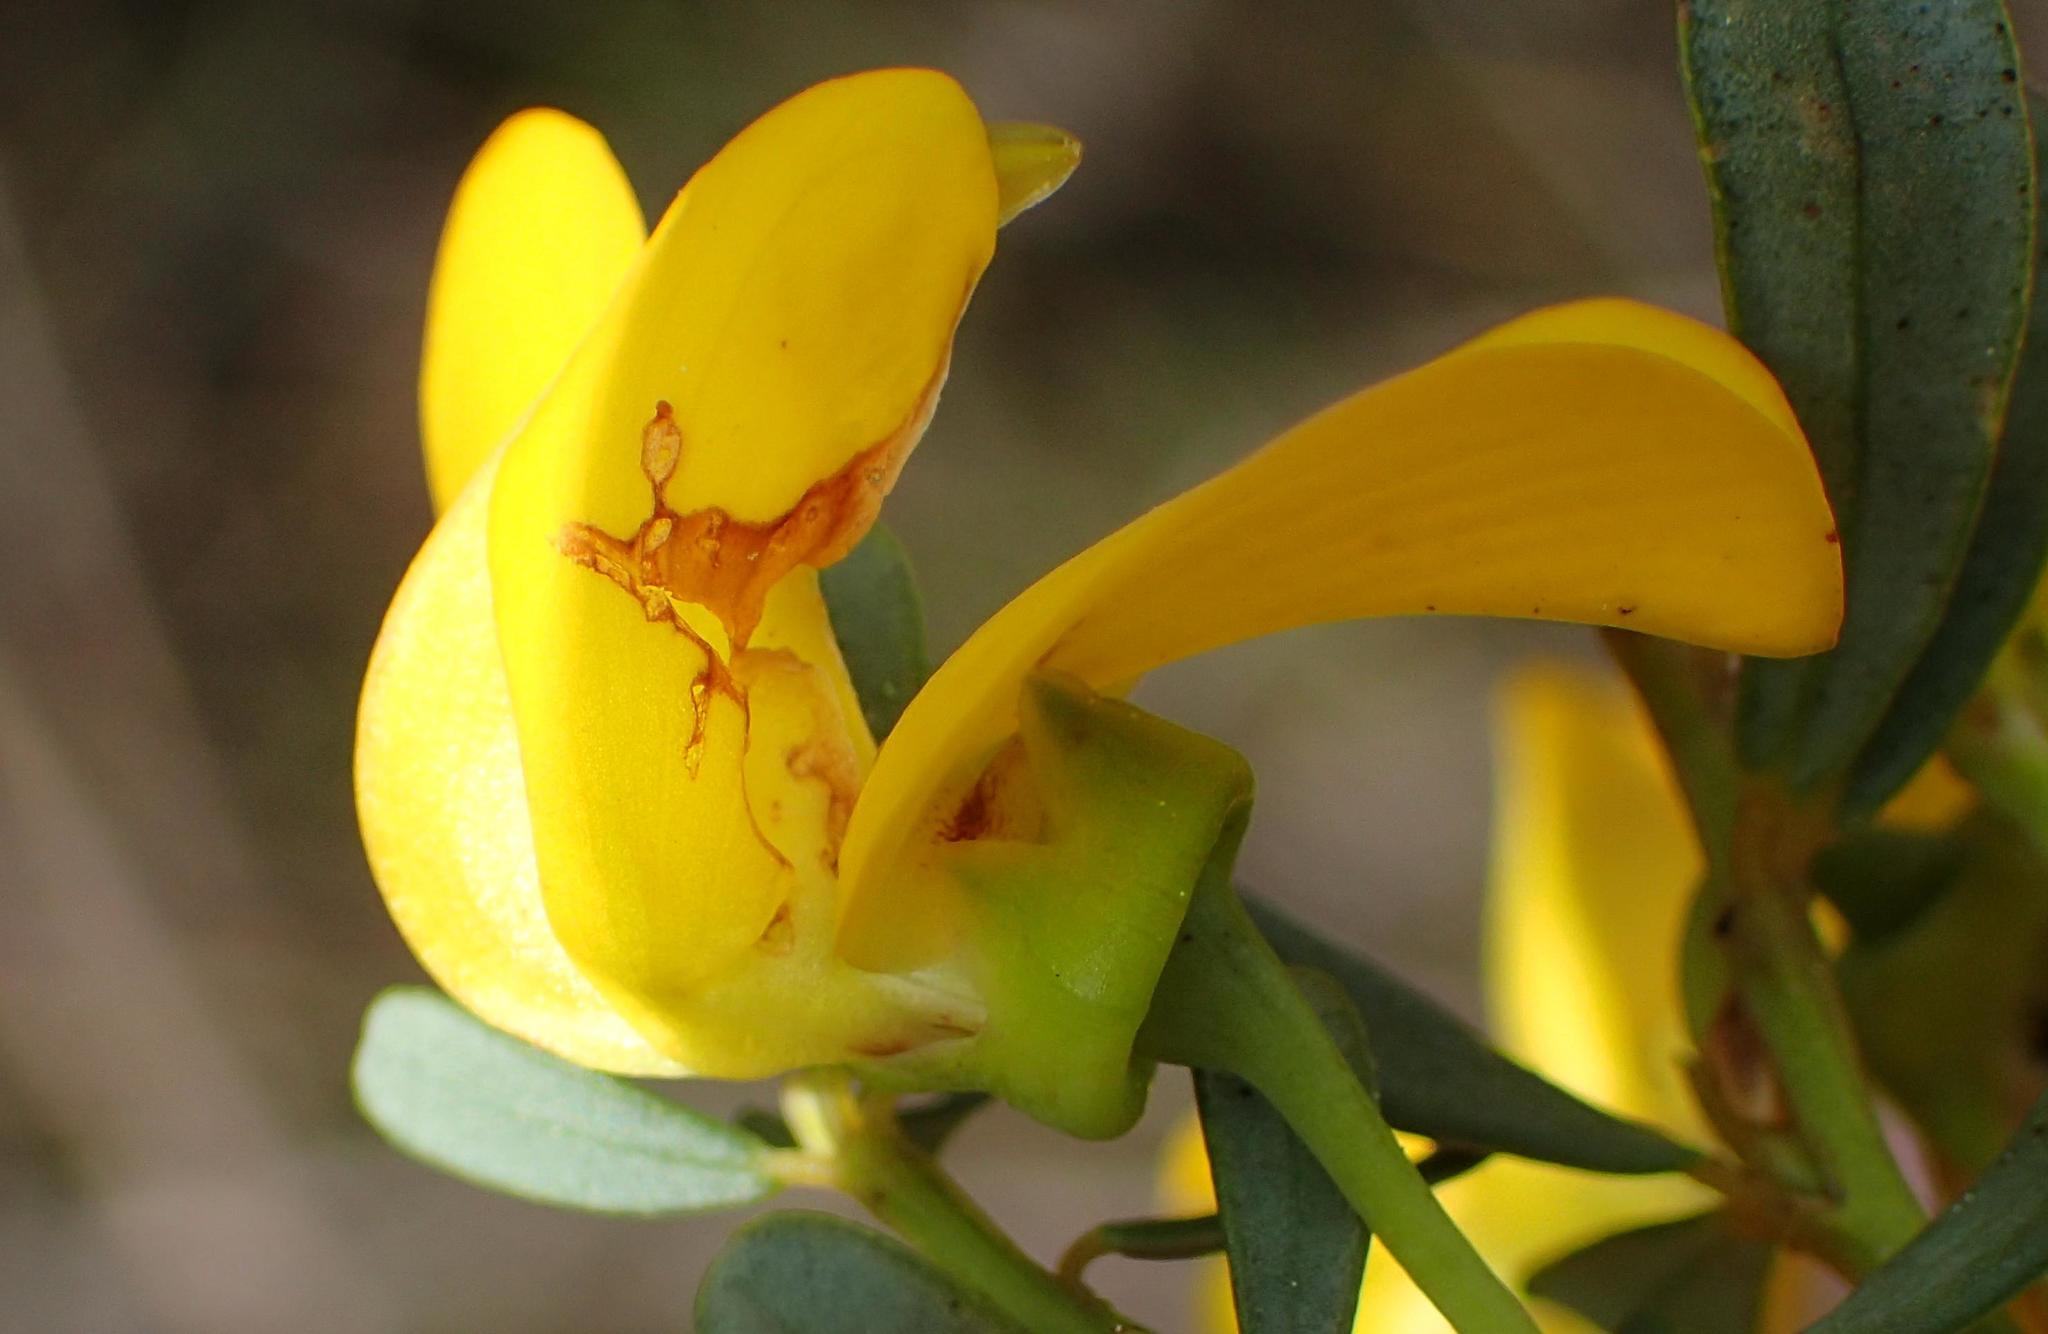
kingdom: Plantae
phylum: Tracheophyta
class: Magnoliopsida
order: Fabales
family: Fabaceae
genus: Cyclopia
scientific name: Cyclopia subternata
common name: Honeybush tea
